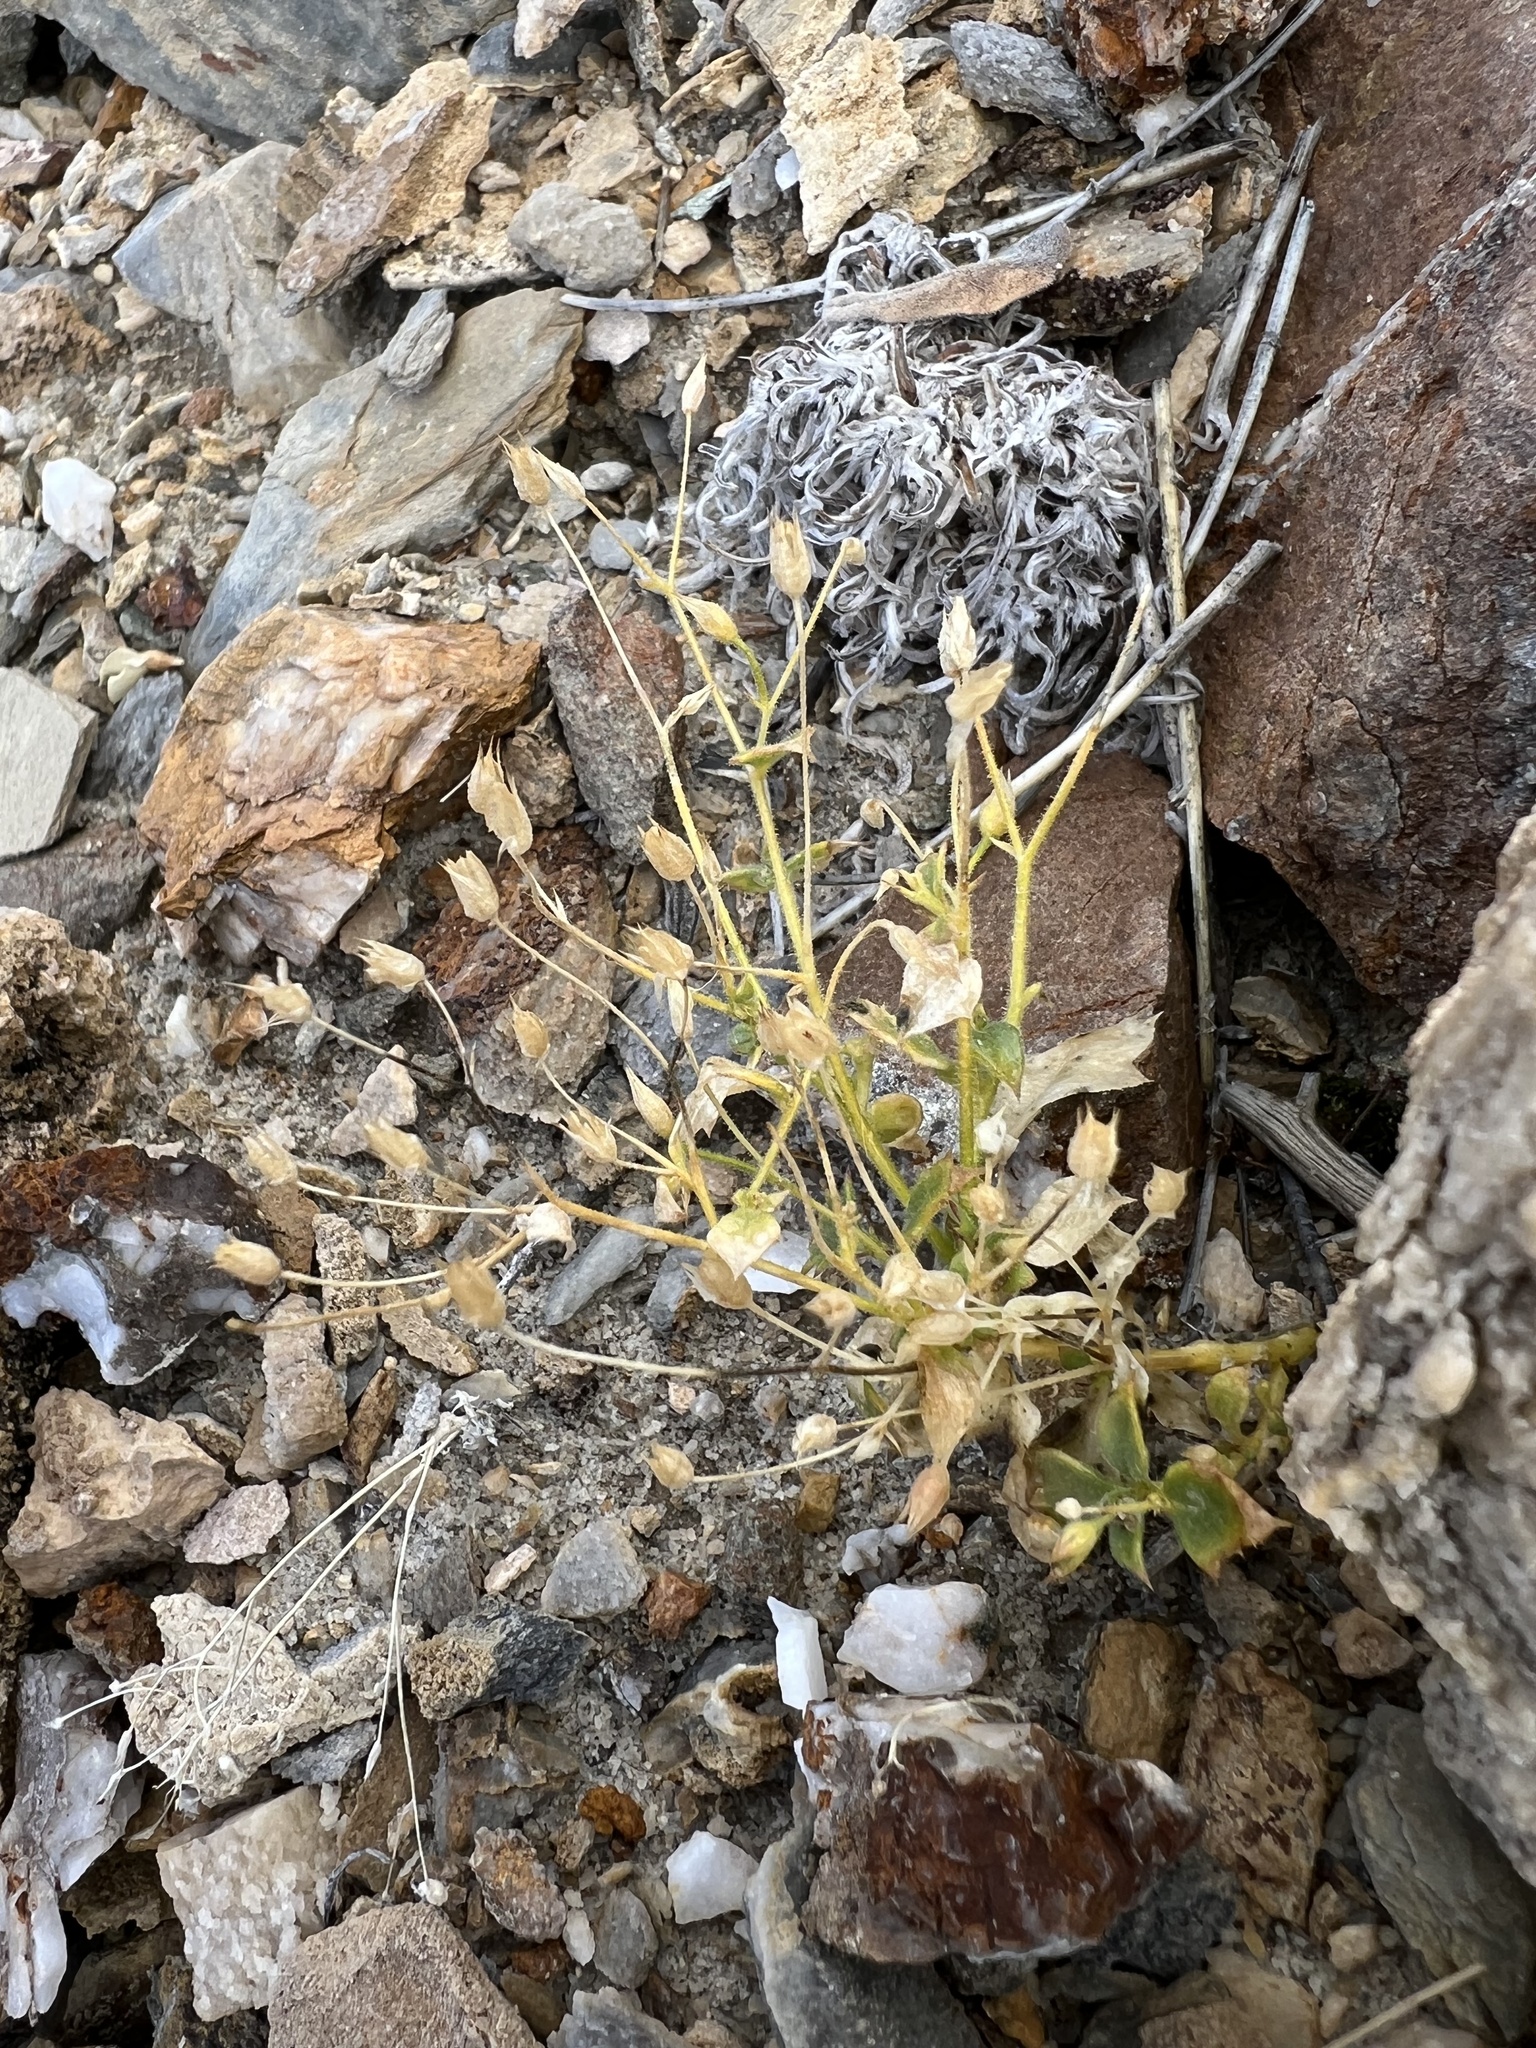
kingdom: Plantae
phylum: Tracheophyta
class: Magnoliopsida
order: Ericales
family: Polemoniaceae
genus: Aliciella
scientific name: Aliciella latifolia
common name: Broad-leaf gilia
